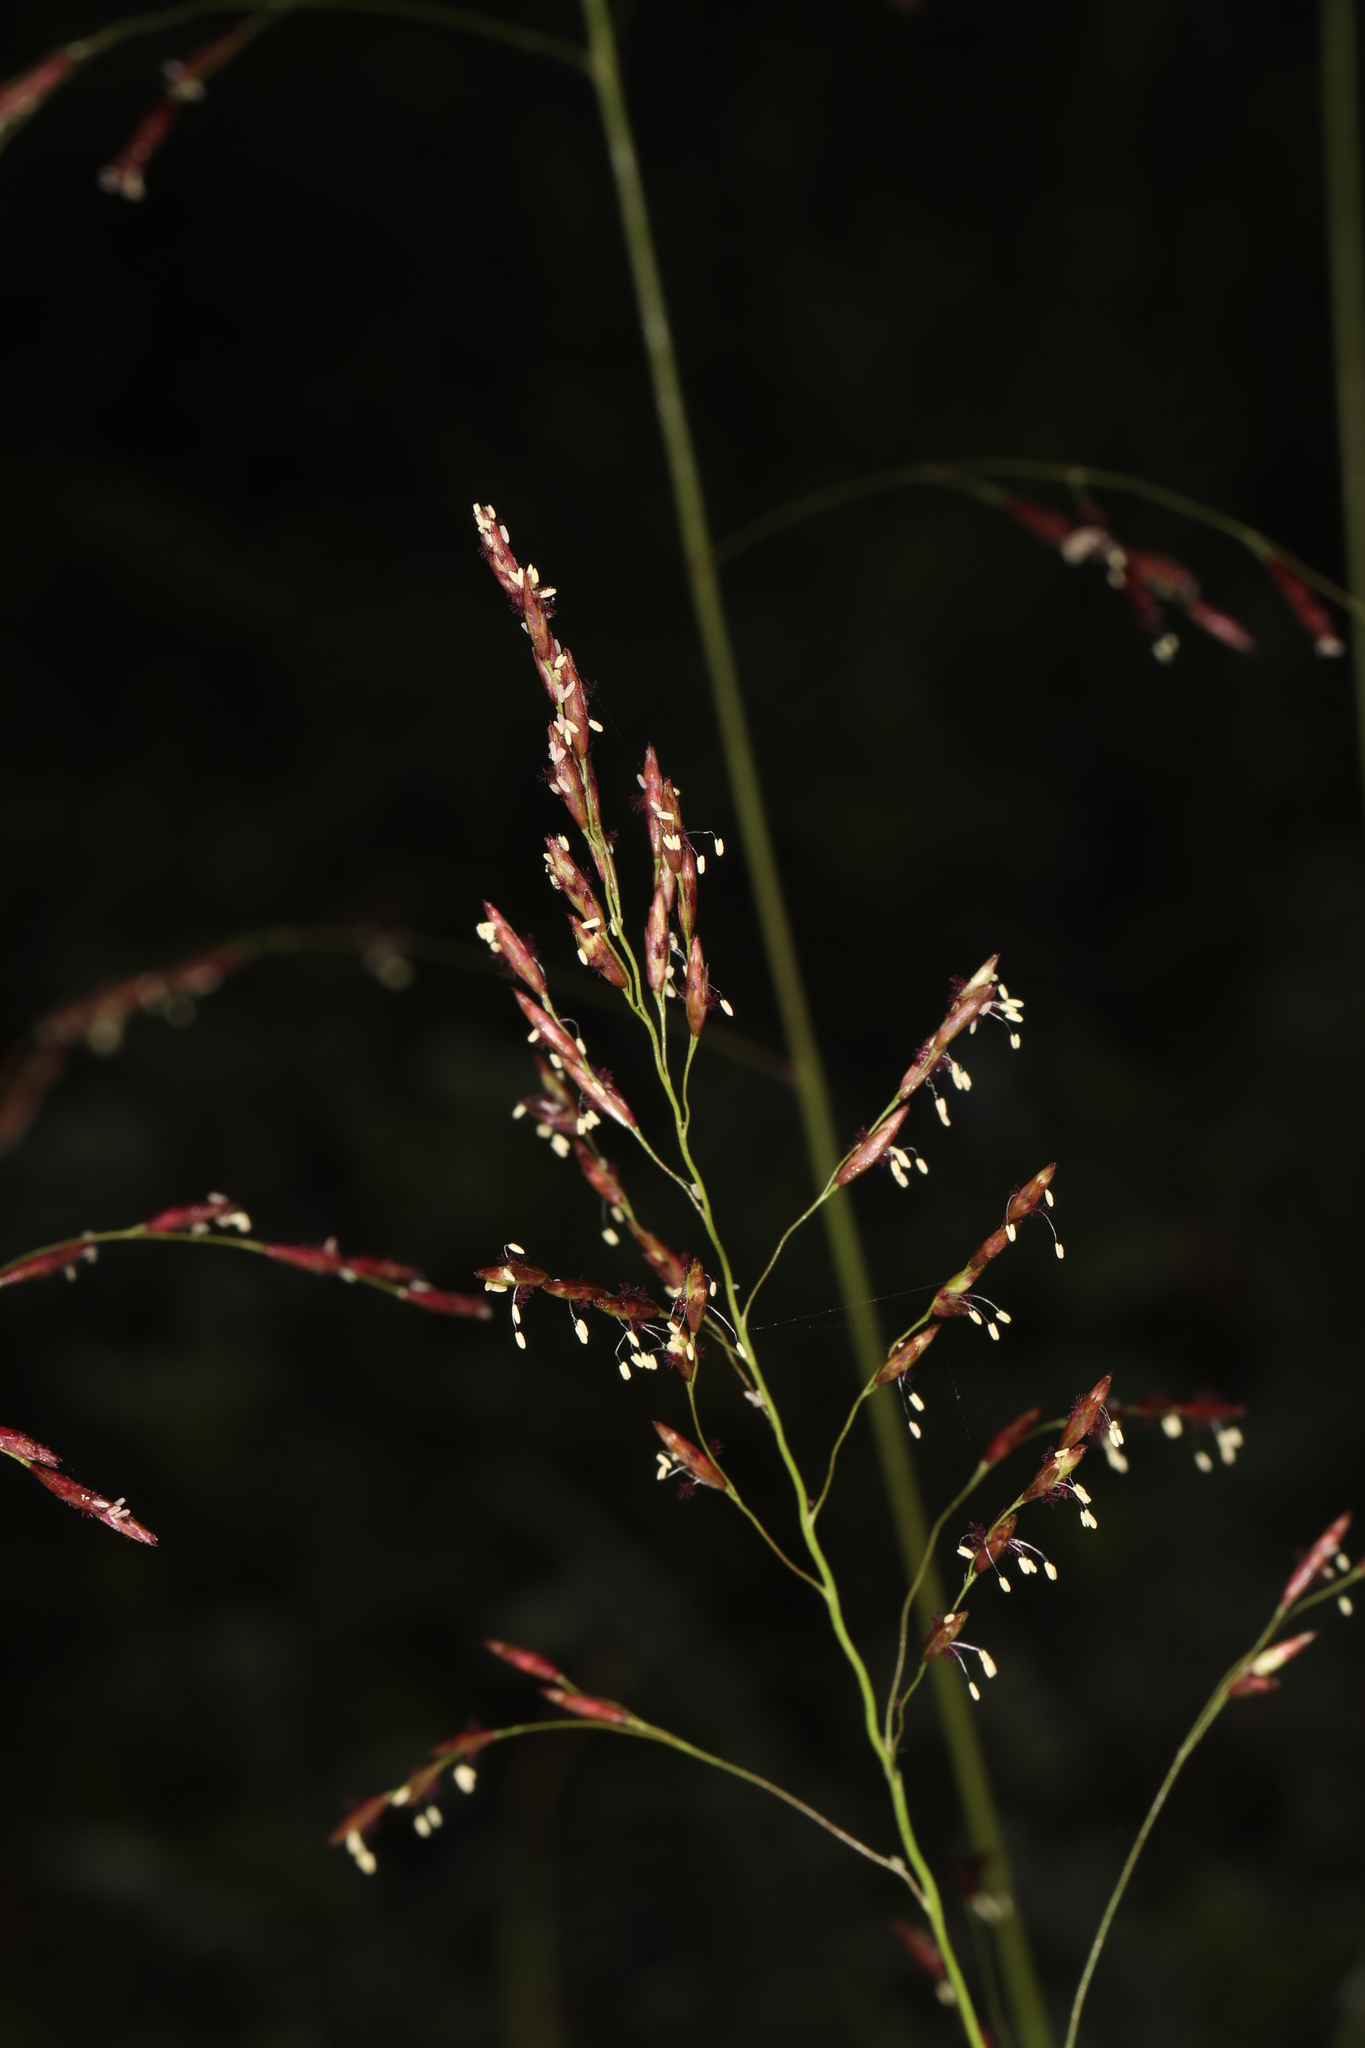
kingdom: Plantae
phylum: Tracheophyta
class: Liliopsida
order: Poales
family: Poaceae
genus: Tridens
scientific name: Tridens flavus
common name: Purpletop
